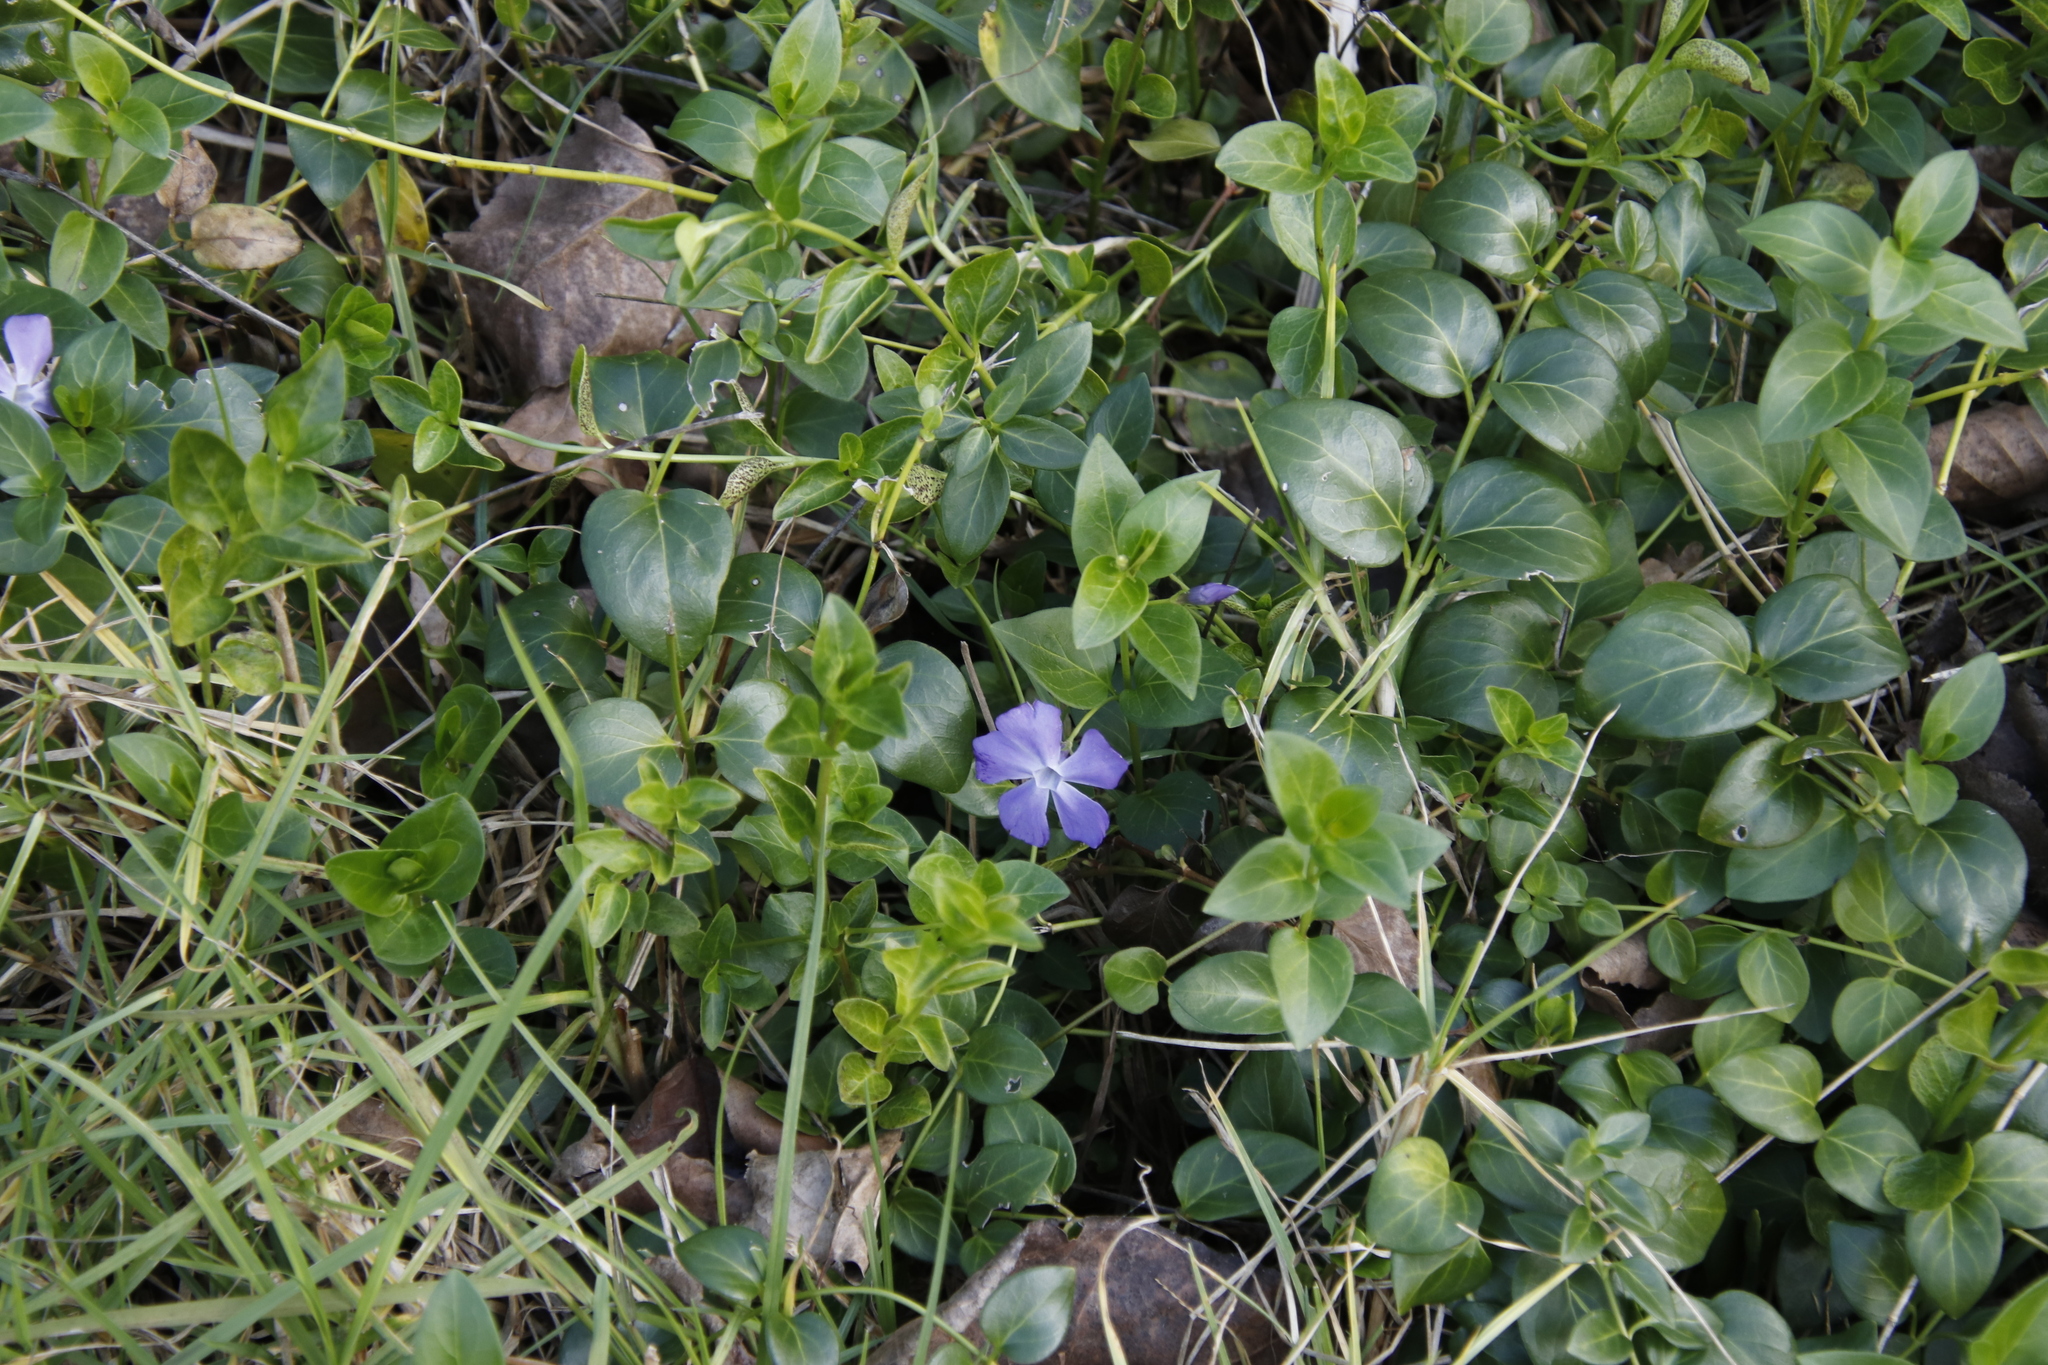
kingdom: Plantae
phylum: Tracheophyta
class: Magnoliopsida
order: Gentianales
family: Apocynaceae
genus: Vinca
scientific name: Vinca major
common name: Greater periwinkle
